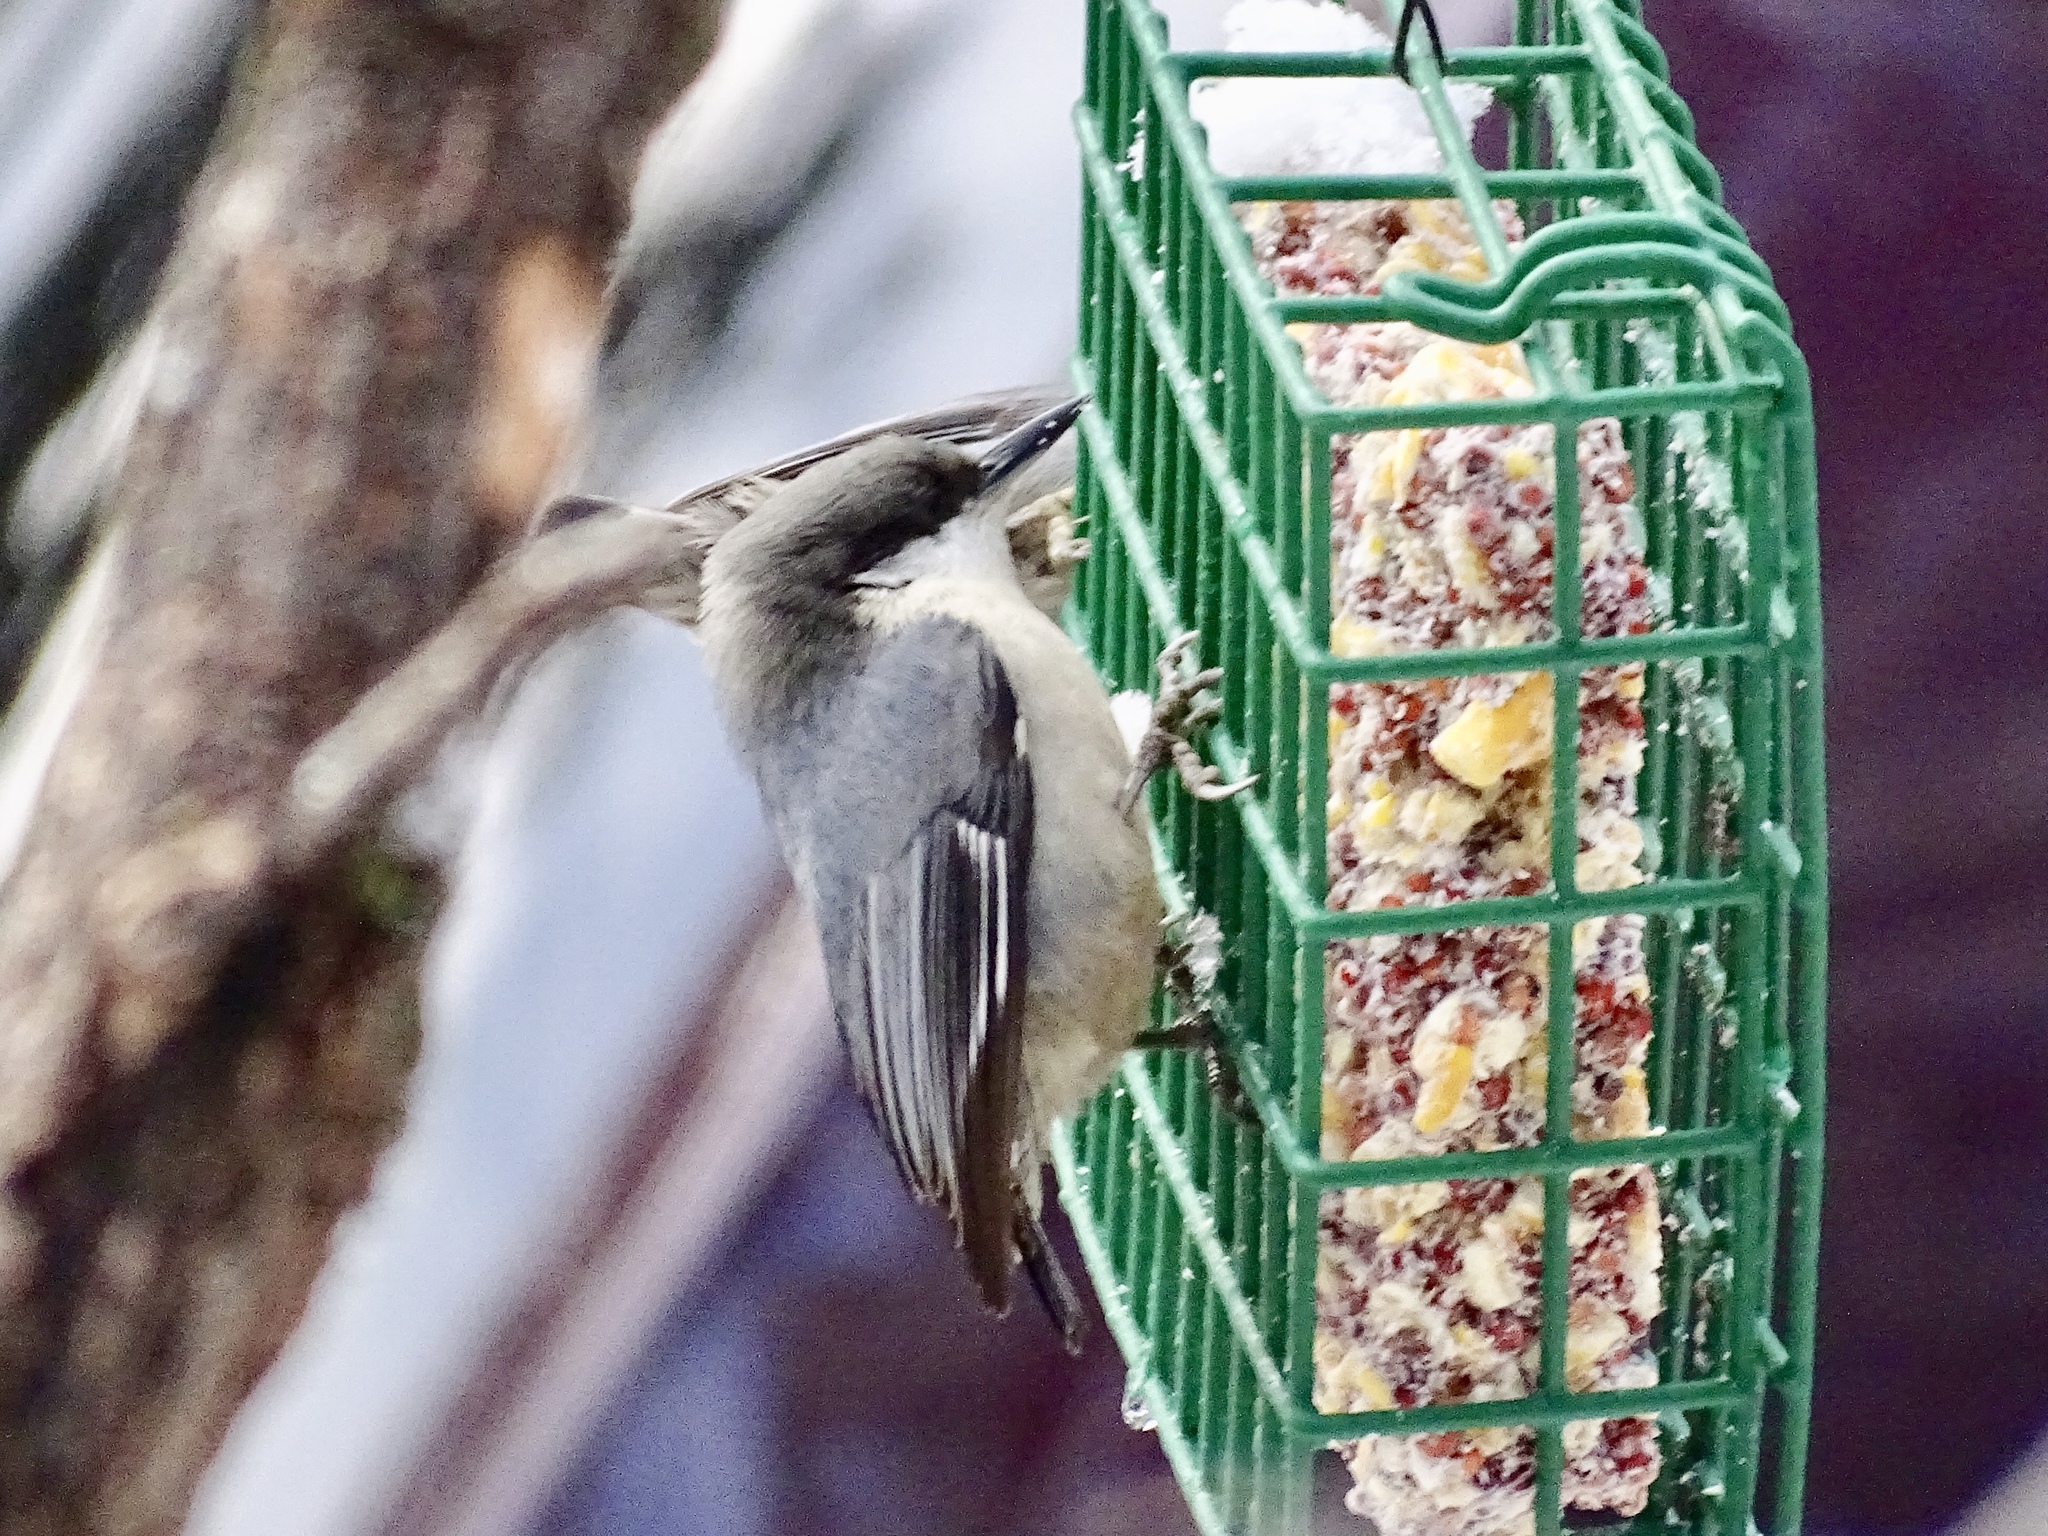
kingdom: Animalia
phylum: Chordata
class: Aves
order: Passeriformes
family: Sittidae
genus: Sitta
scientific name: Sitta pygmaea
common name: Pygmy nuthatch
